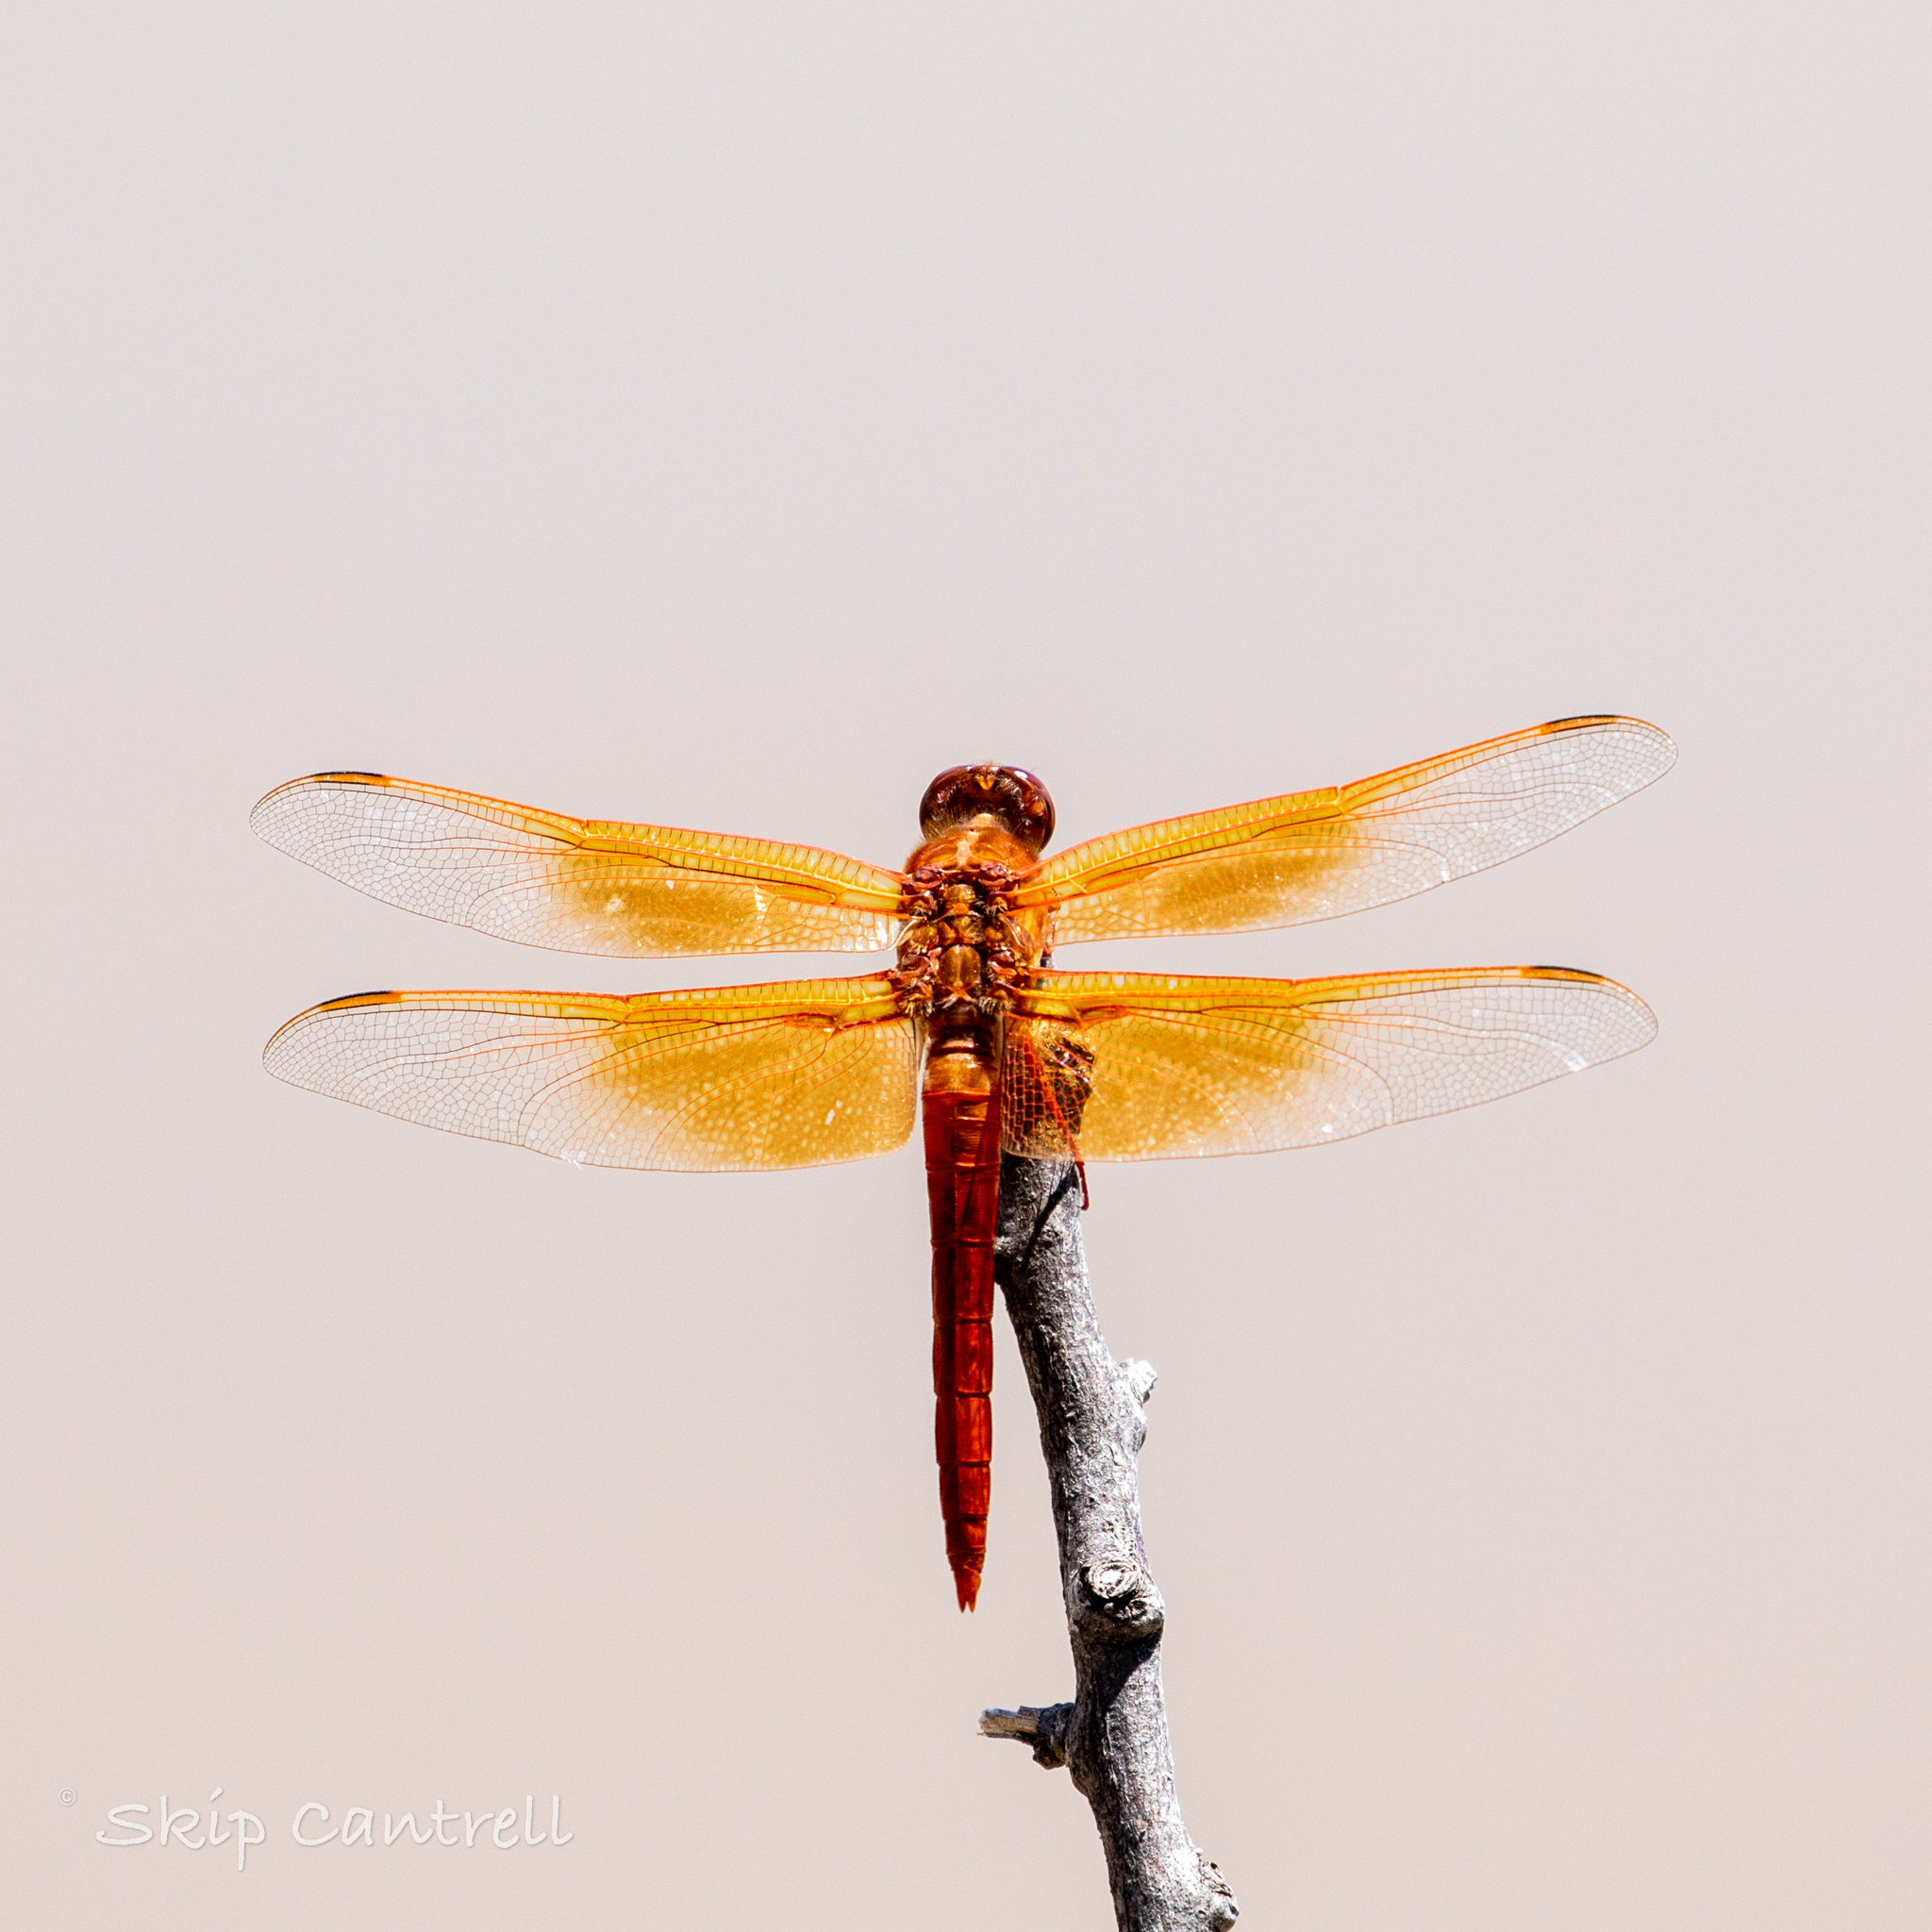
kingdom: Animalia
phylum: Arthropoda
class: Insecta
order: Odonata
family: Libellulidae
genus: Libellula
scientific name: Libellula saturata
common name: Flame skimmer
